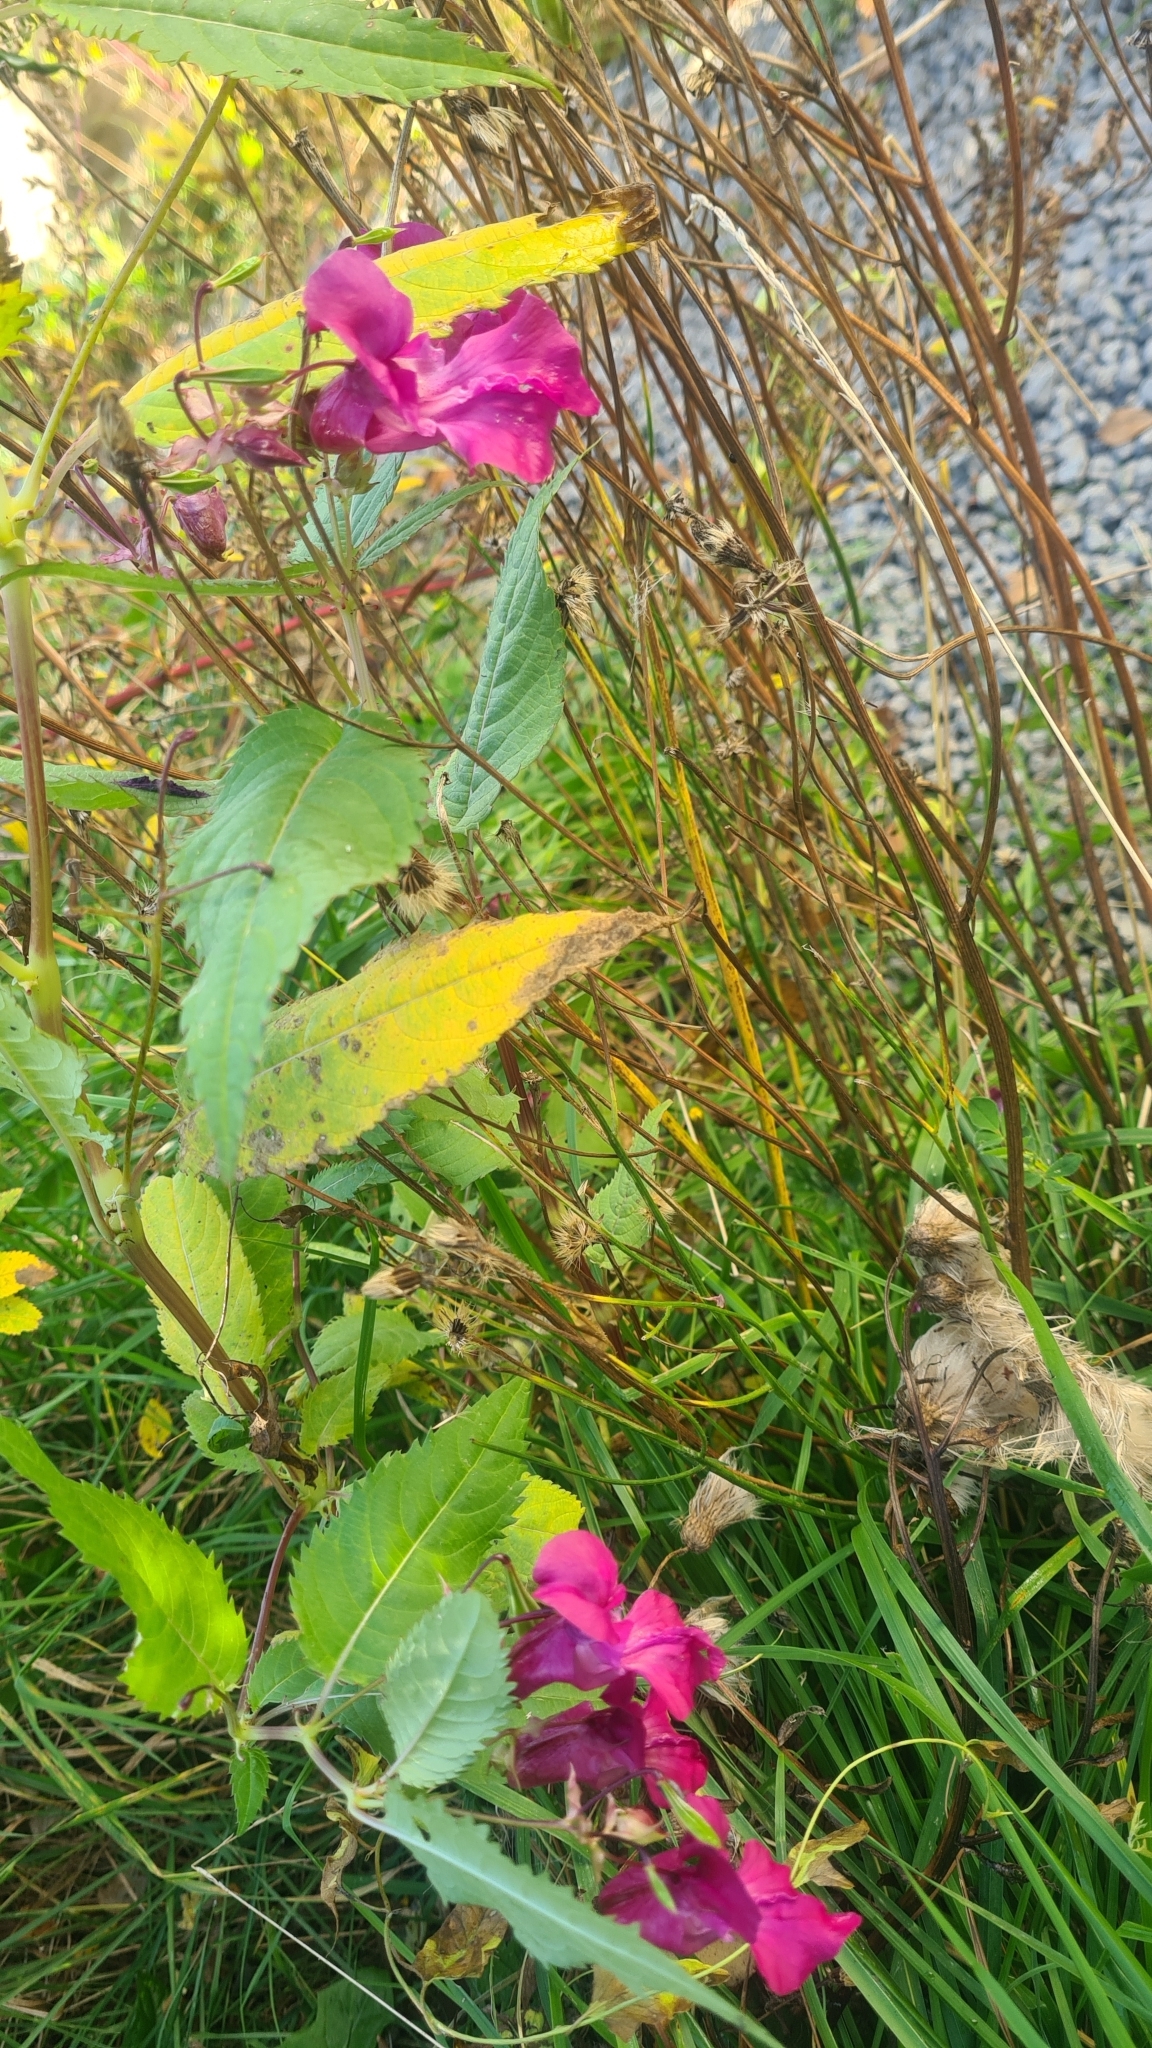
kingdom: Plantae
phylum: Tracheophyta
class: Magnoliopsida
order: Ericales
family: Balsaminaceae
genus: Impatiens
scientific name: Impatiens glandulifera
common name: Himalayan balsam
